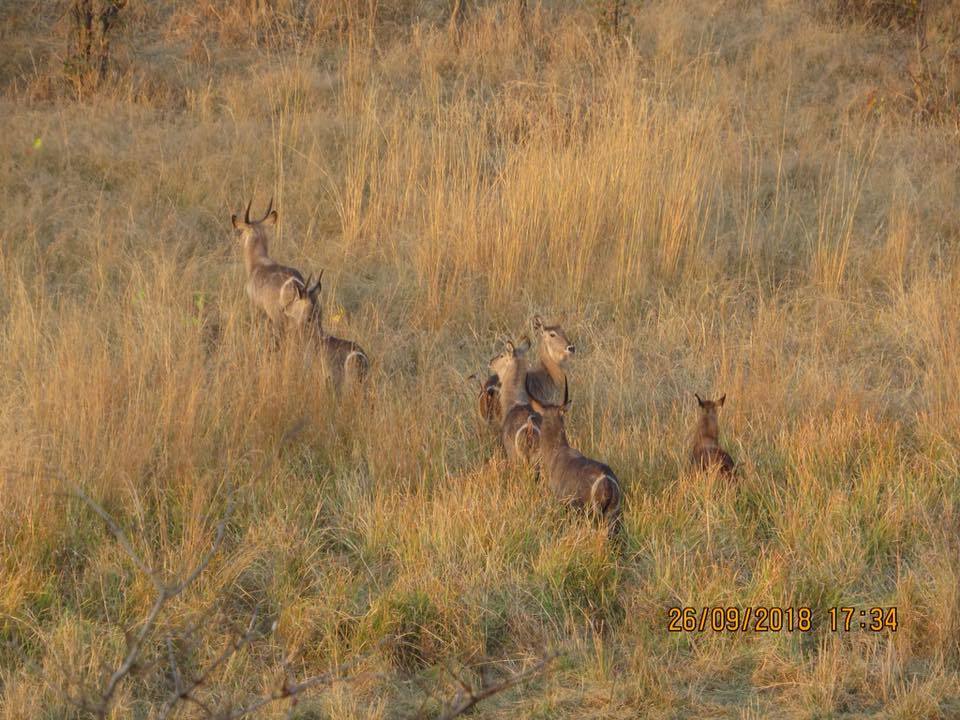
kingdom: Animalia
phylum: Chordata
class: Mammalia
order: Artiodactyla
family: Bovidae
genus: Kobus
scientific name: Kobus ellipsiprymnus
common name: Waterbuck
